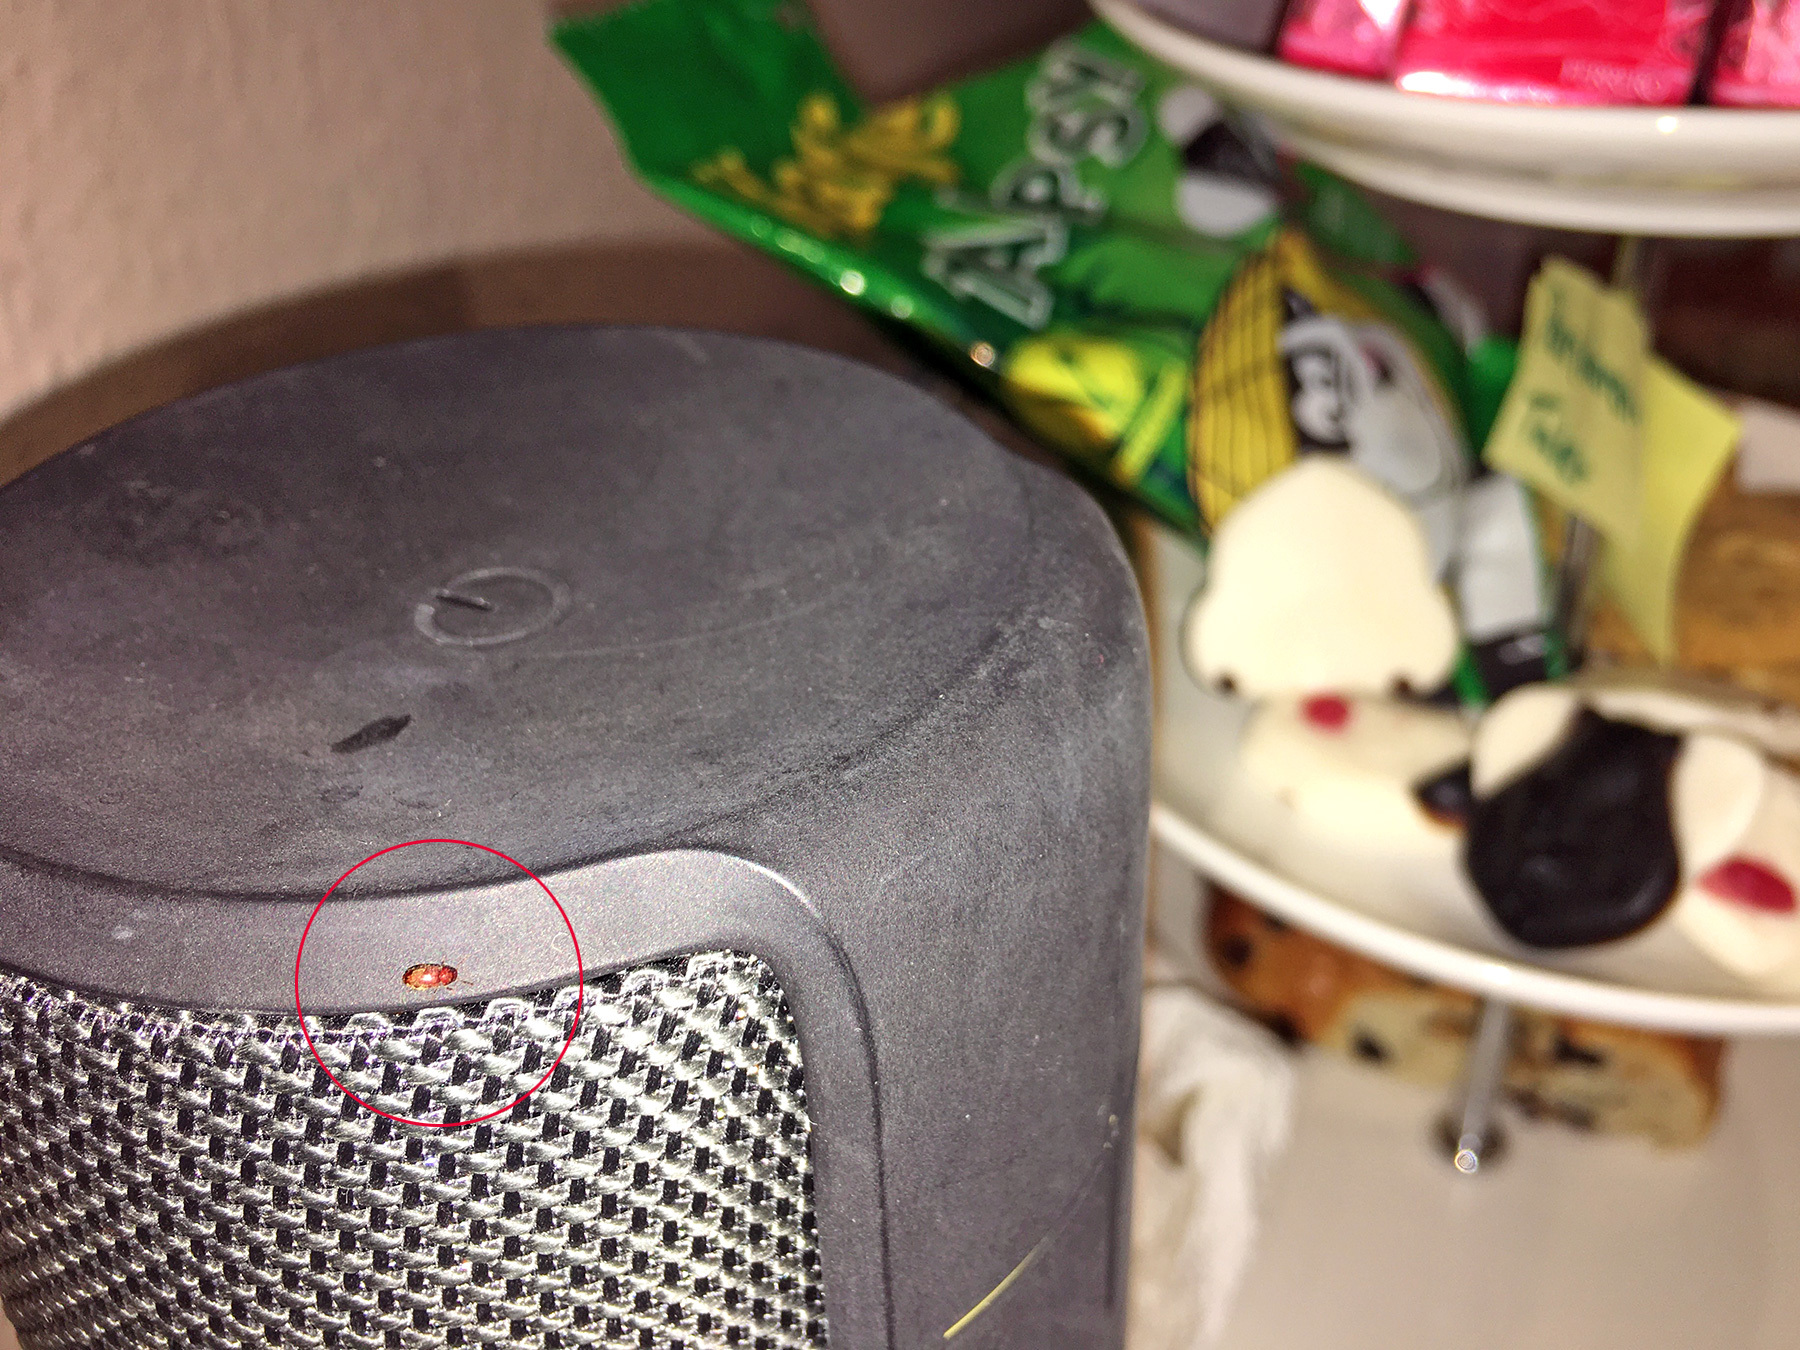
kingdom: Animalia
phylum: Arthropoda
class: Insecta
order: Coleoptera
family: Anobiidae
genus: Stegobium
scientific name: Stegobium paniceum
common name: Drugstore beetle
